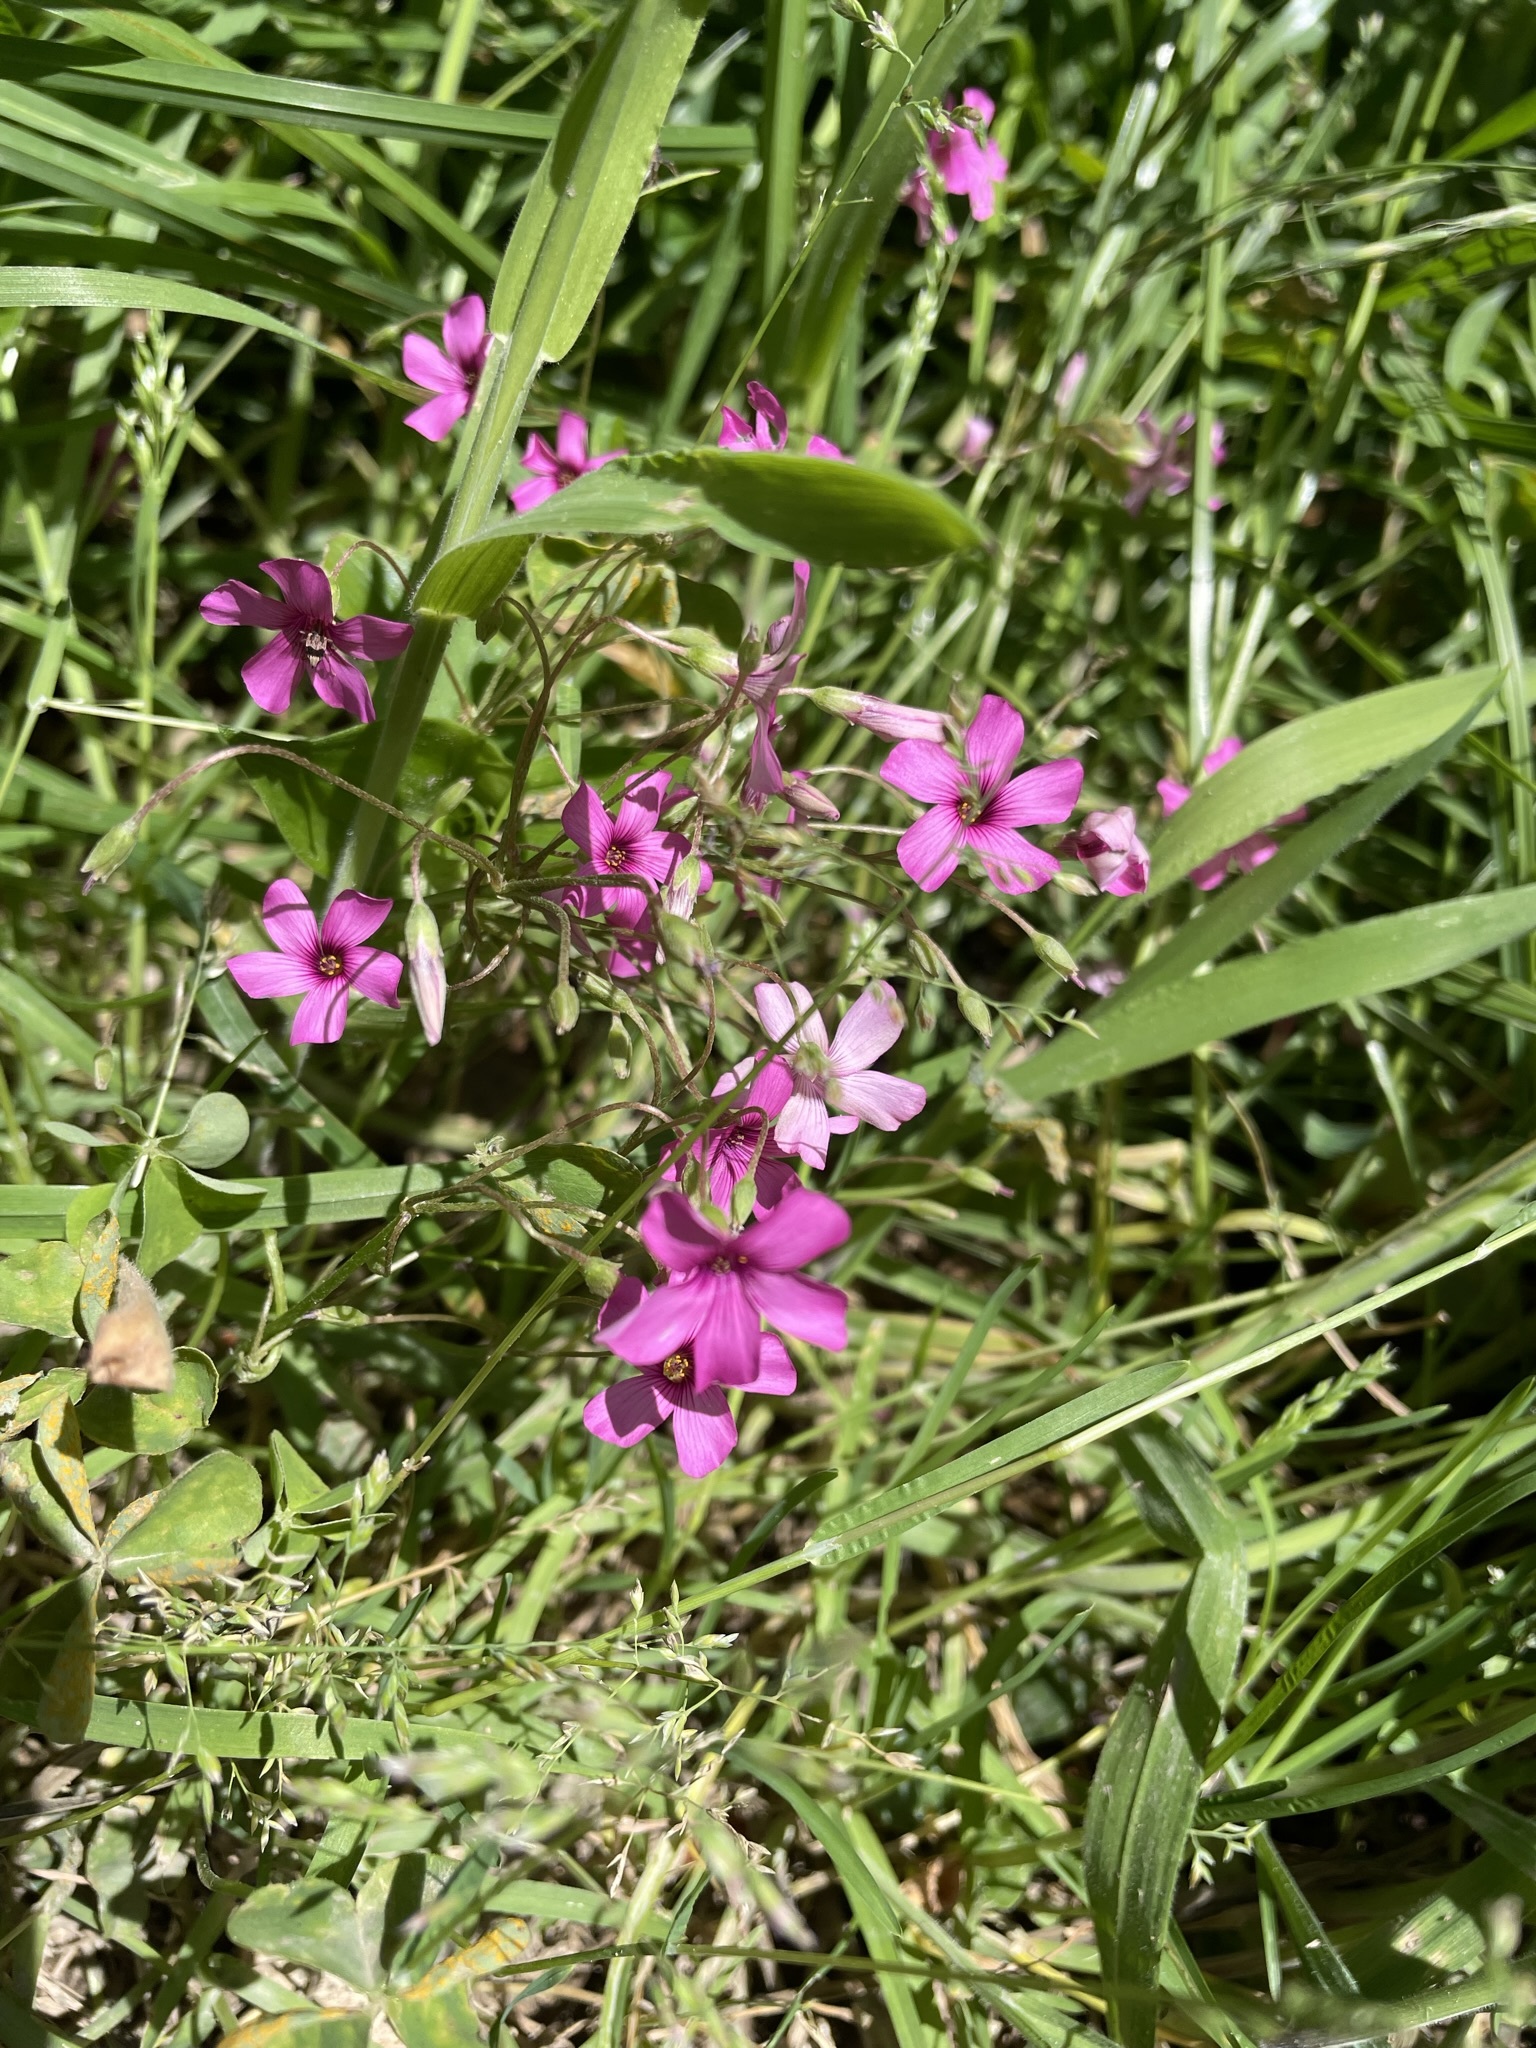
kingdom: Plantae
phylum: Tracheophyta
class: Magnoliopsida
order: Oxalidales
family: Oxalidaceae
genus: Oxalis
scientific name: Oxalis articulata
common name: Pink-sorrel
